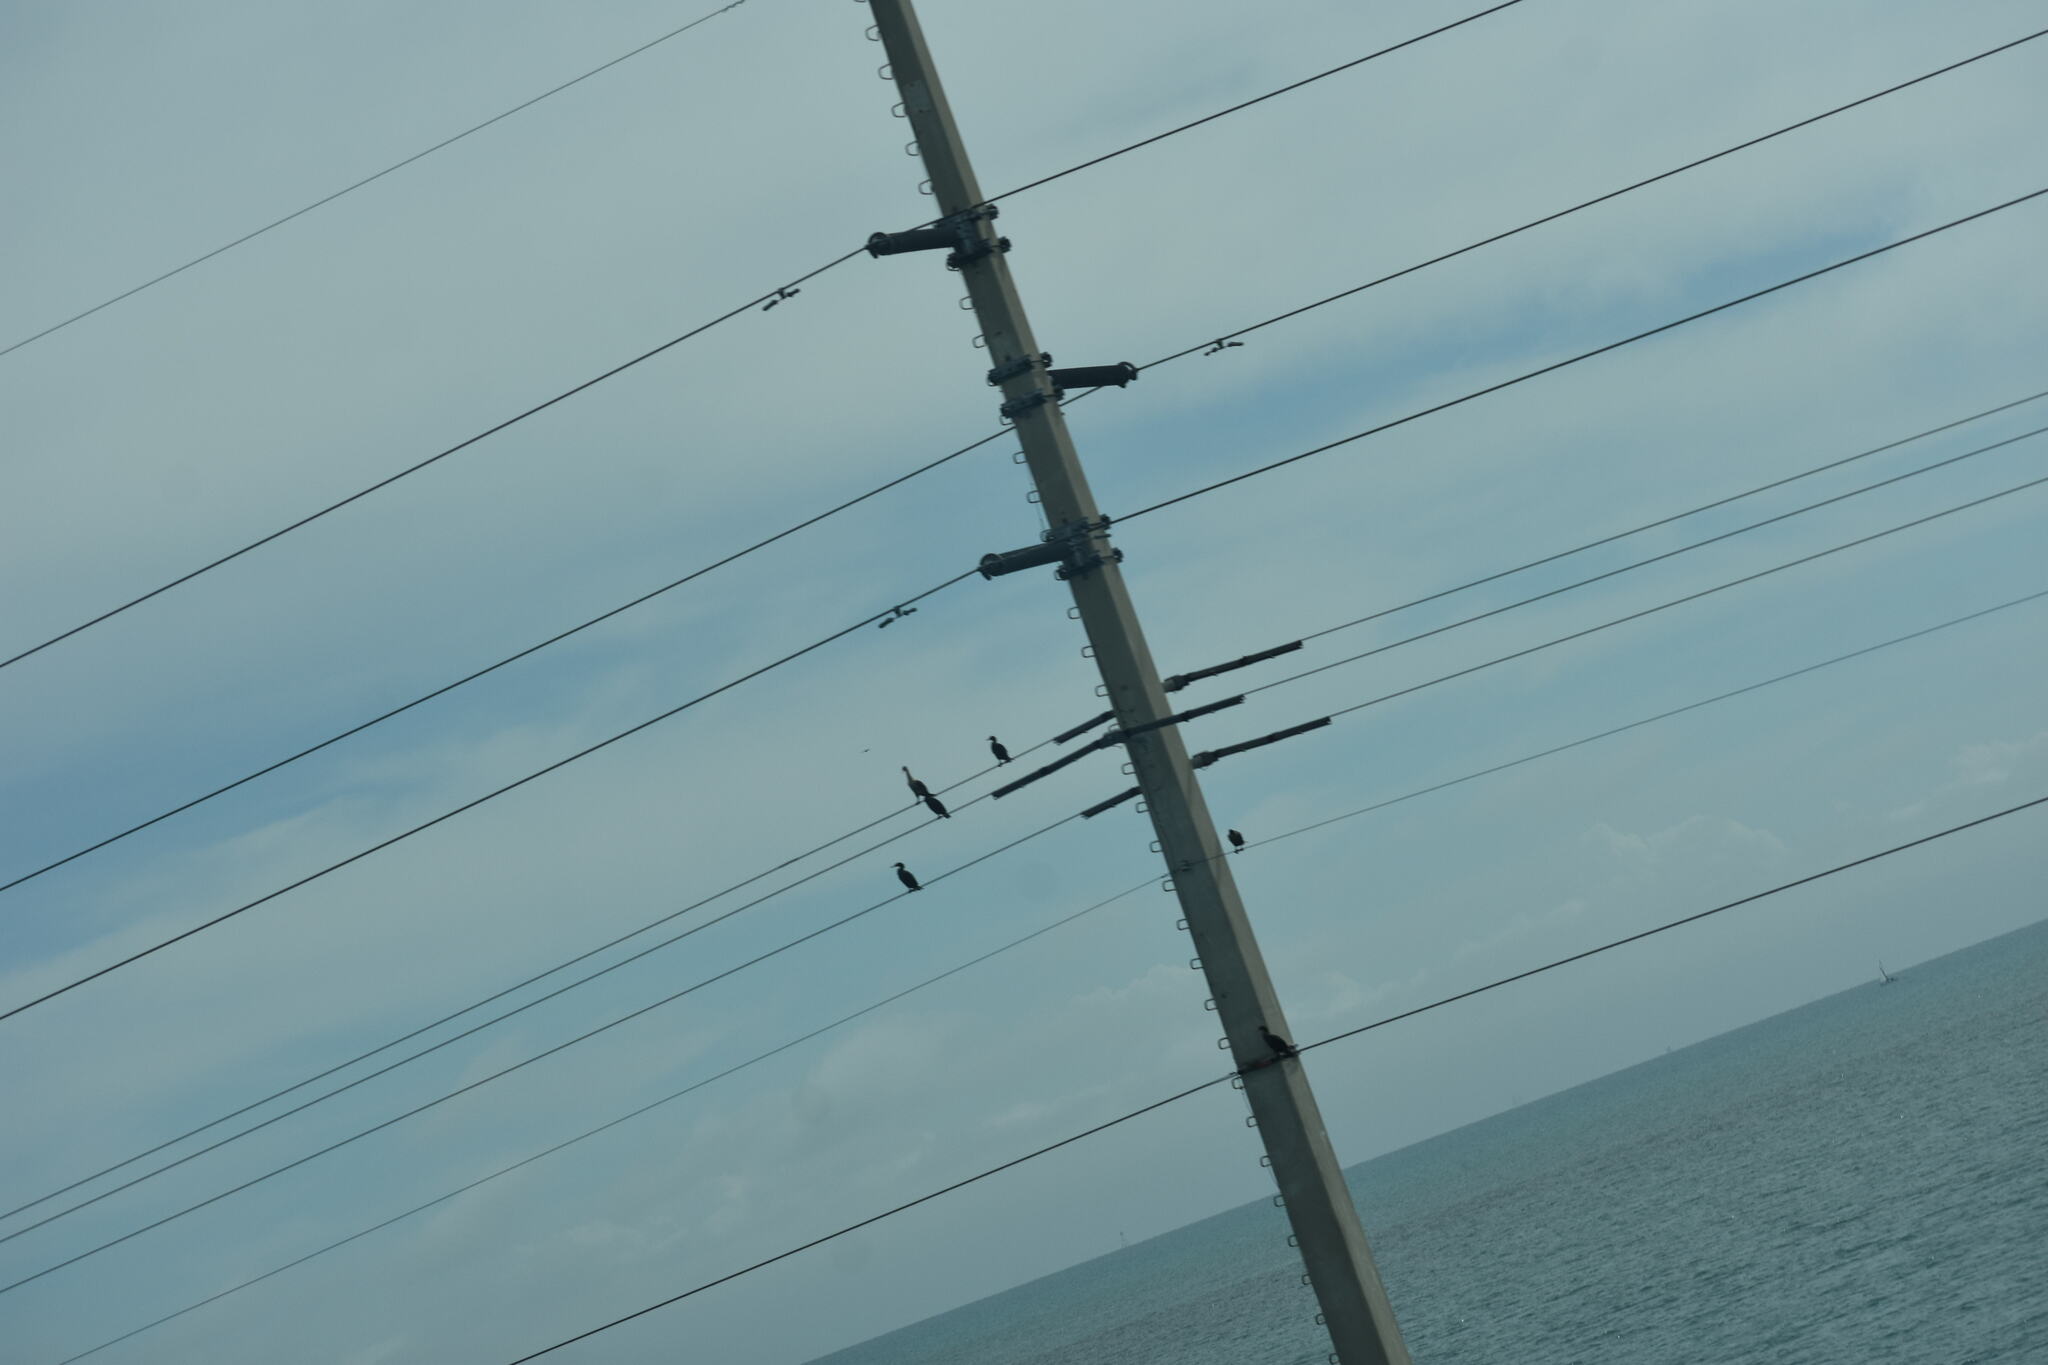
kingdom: Animalia
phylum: Chordata
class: Aves
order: Suliformes
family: Phalacrocoracidae
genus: Phalacrocorax
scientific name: Phalacrocorax auritus
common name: Double-crested cormorant
